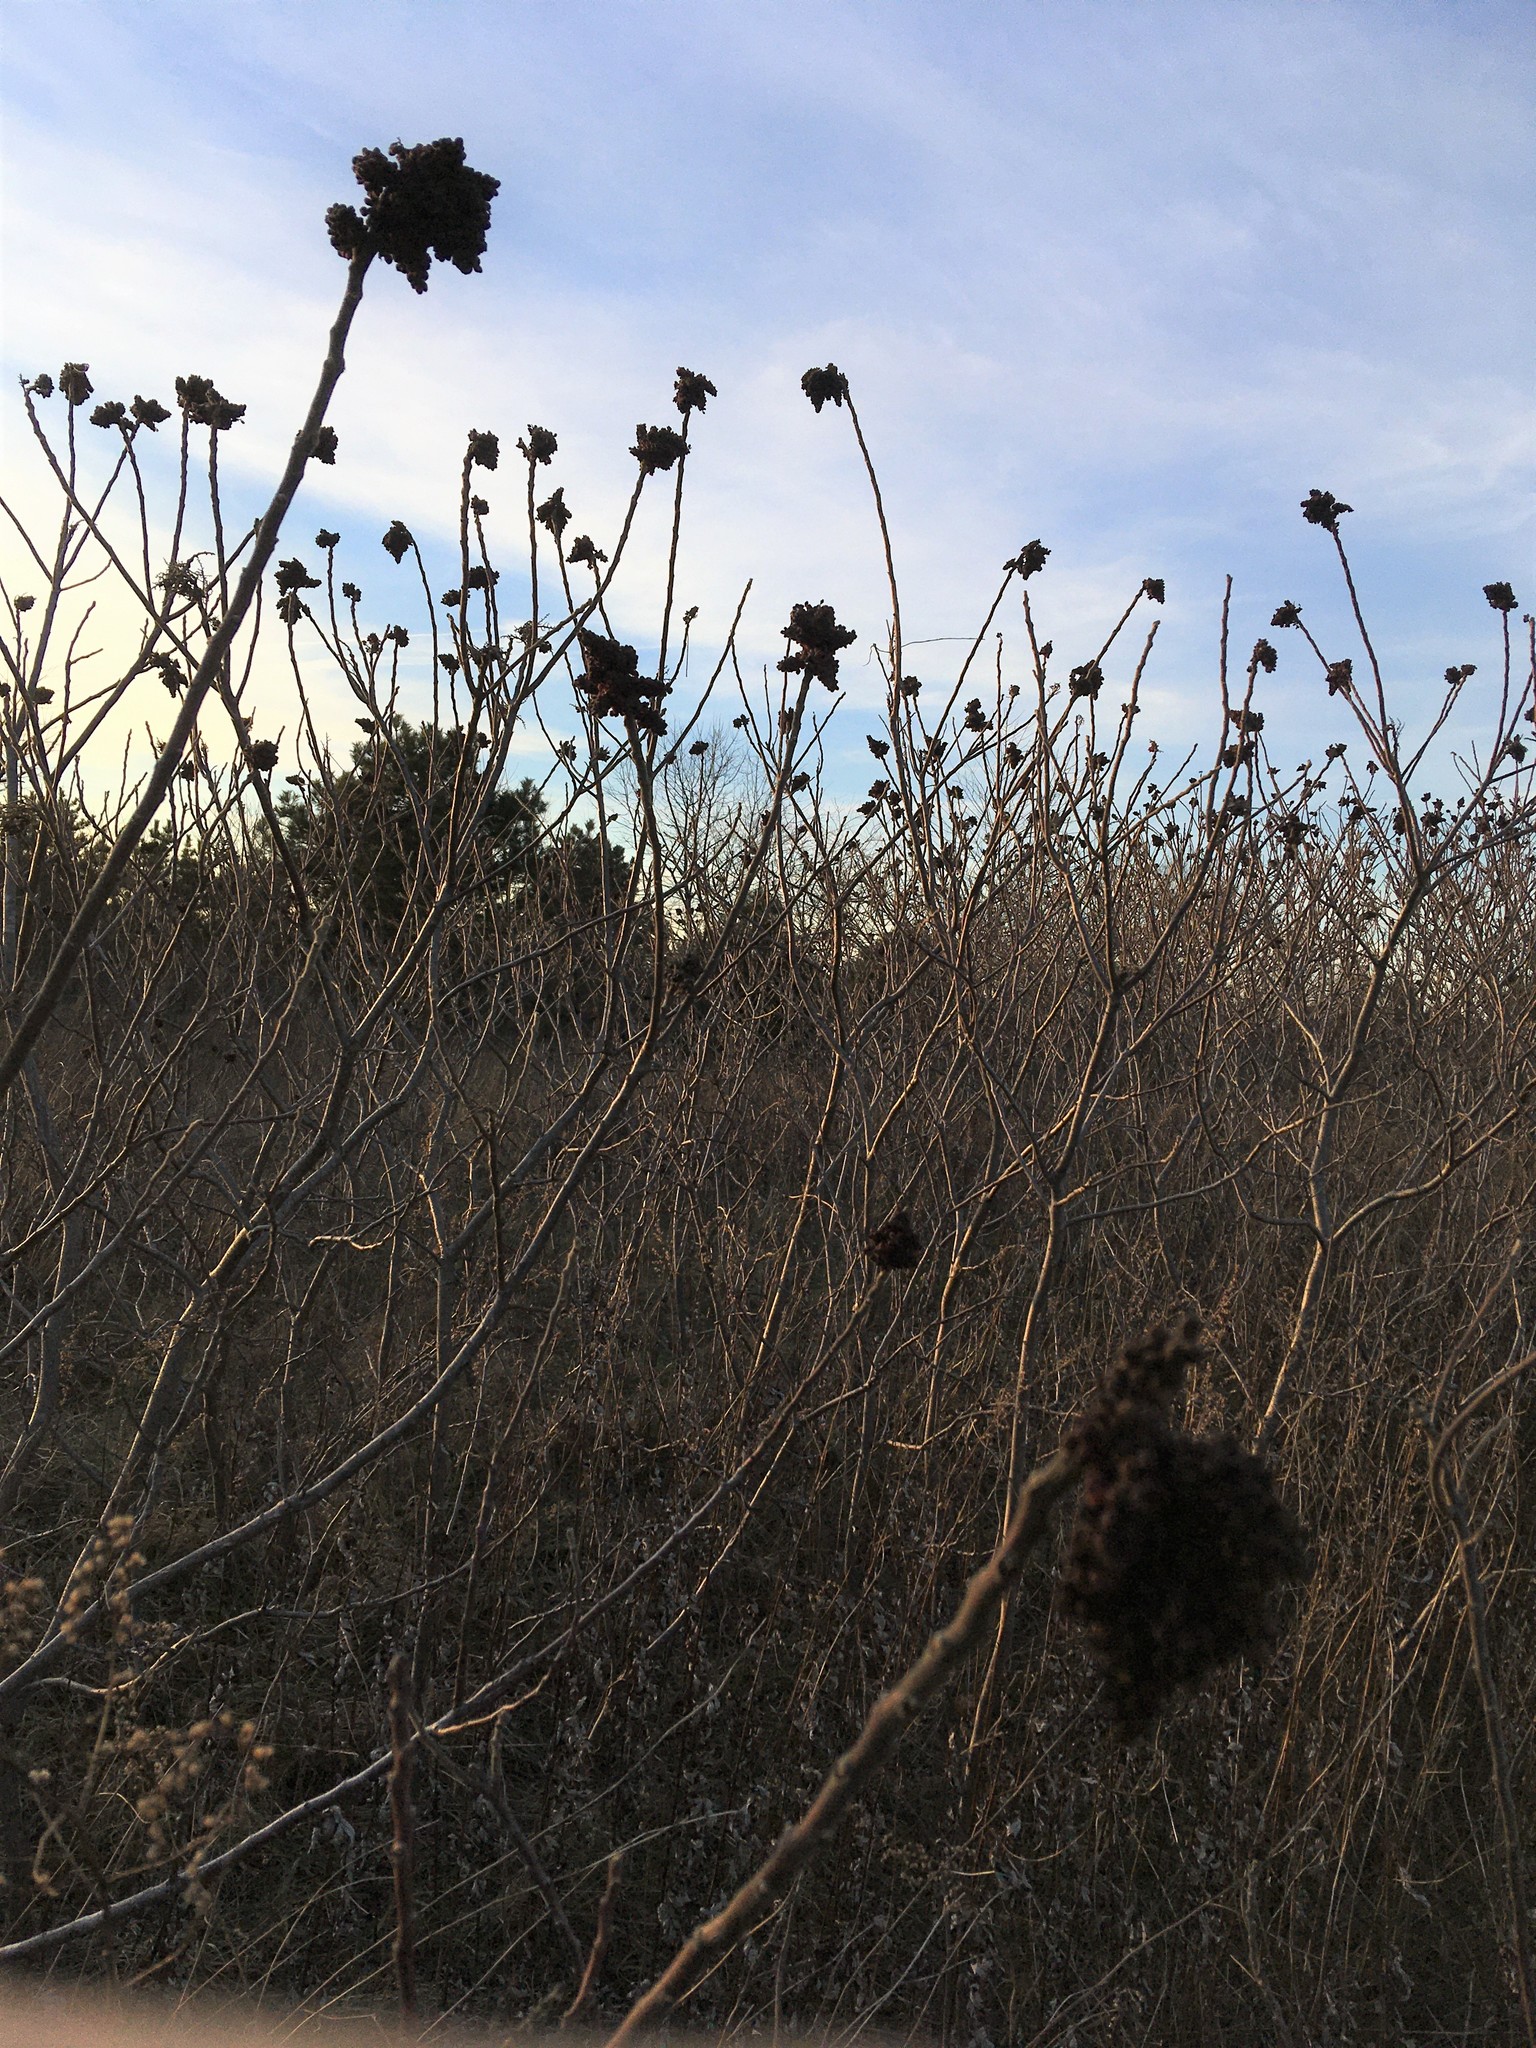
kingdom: Plantae
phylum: Tracheophyta
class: Magnoliopsida
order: Sapindales
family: Anacardiaceae
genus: Rhus
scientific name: Rhus copallina
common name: Shining sumac
